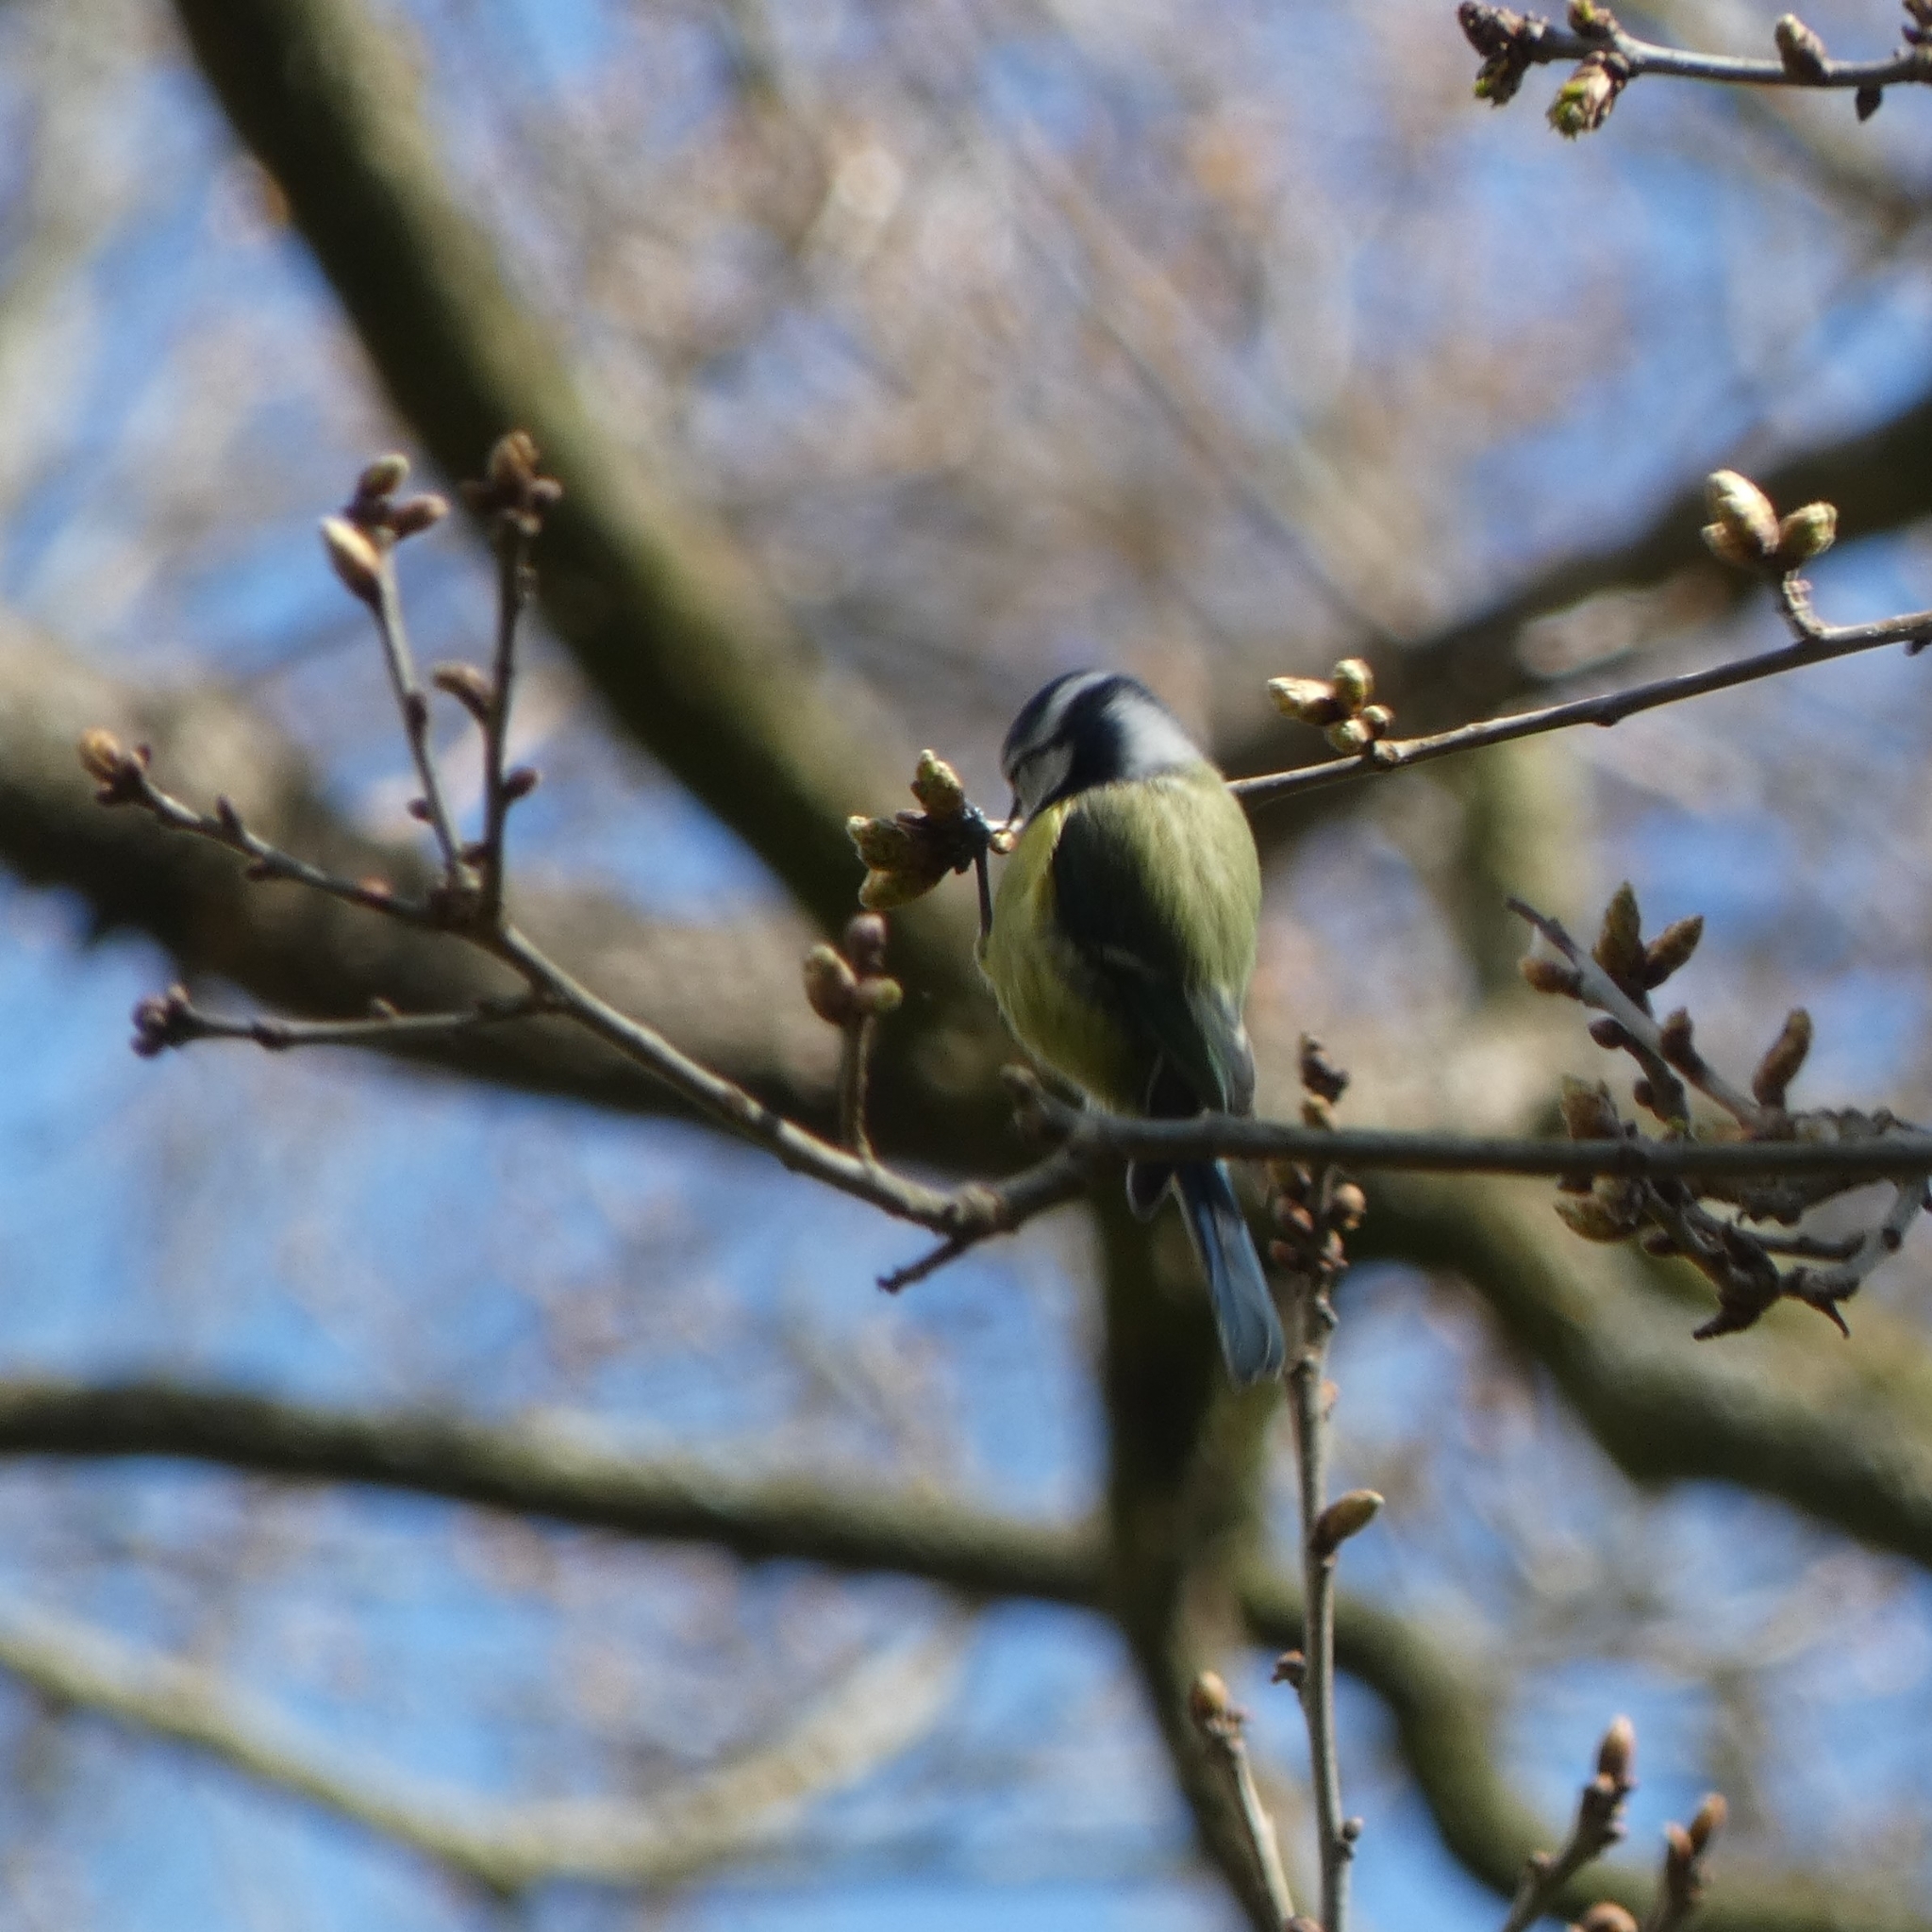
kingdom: Animalia
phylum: Chordata
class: Aves
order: Passeriformes
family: Paridae
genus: Cyanistes
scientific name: Cyanistes caeruleus
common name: Eurasian blue tit
